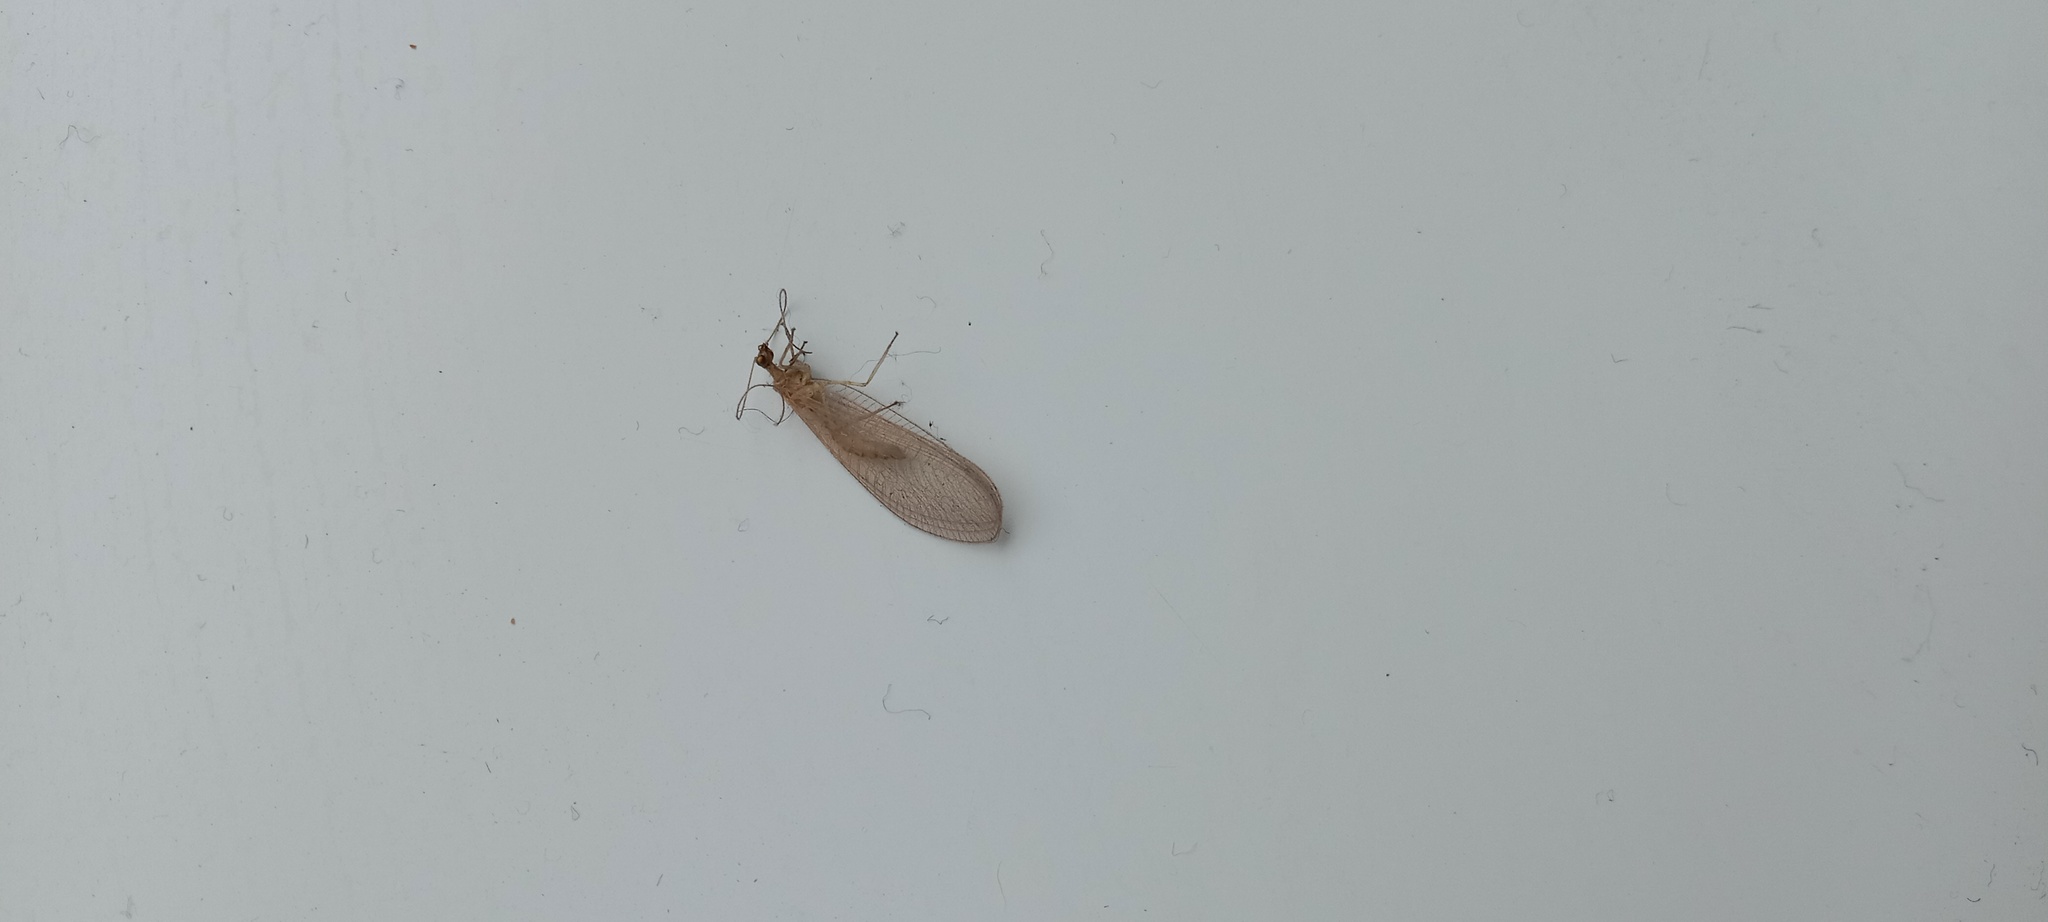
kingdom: Animalia
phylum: Arthropoda
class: Insecta
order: Neuroptera
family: Chrysopidae
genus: Chrysoperla
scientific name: Chrysoperla
